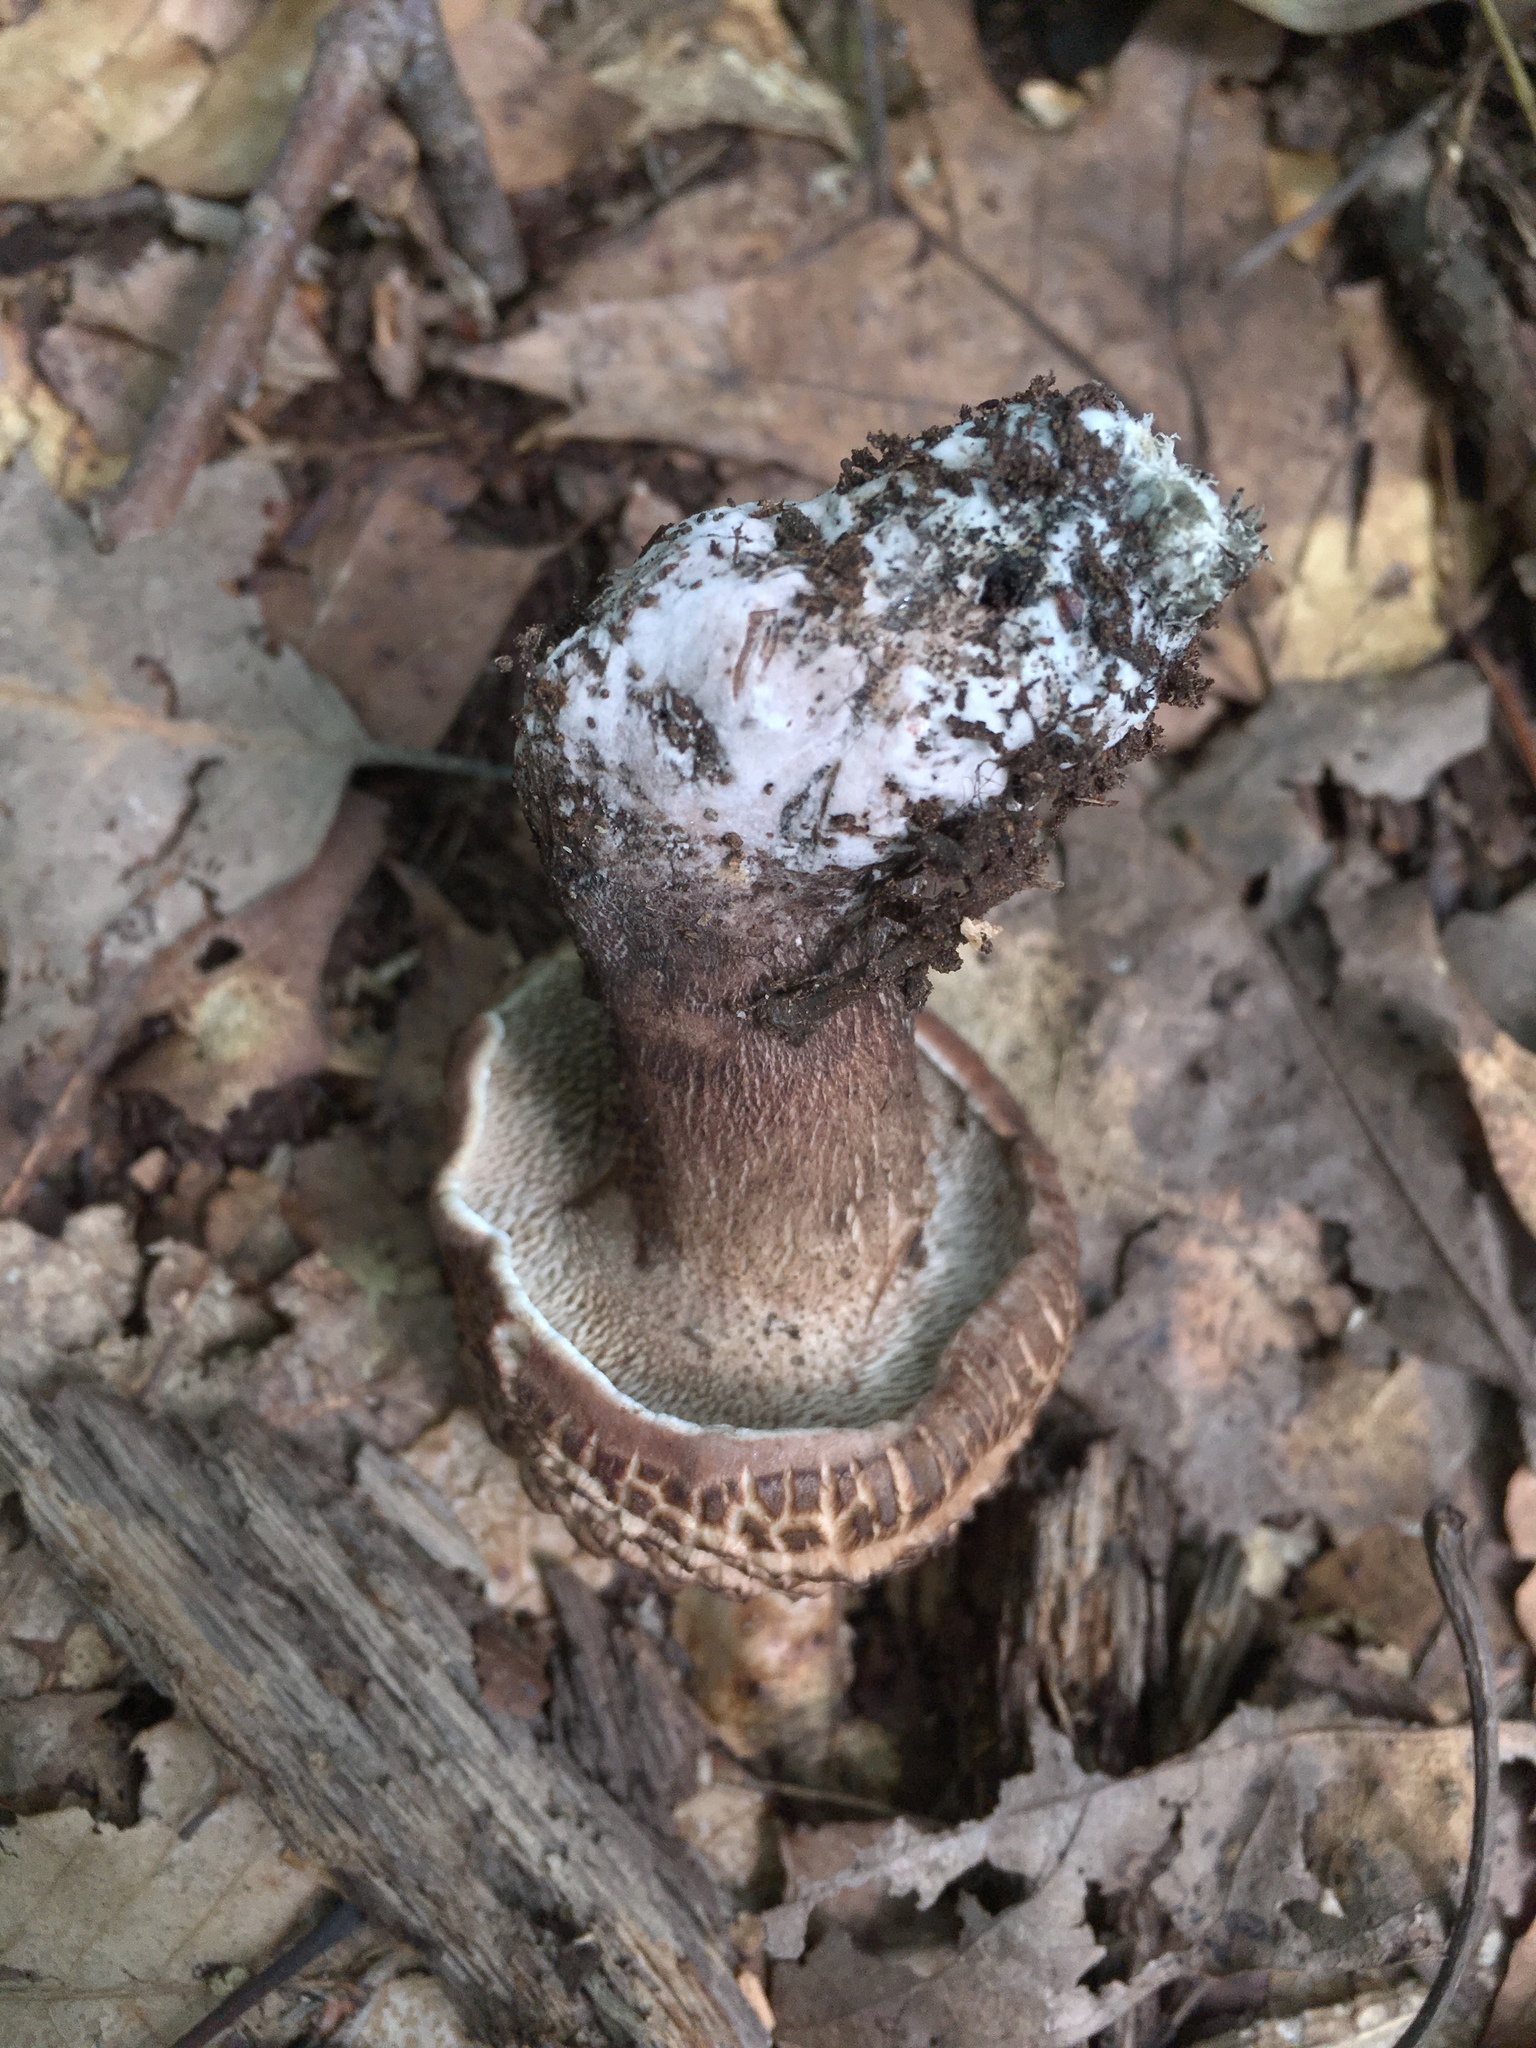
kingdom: Fungi
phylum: Basidiomycota
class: Agaricomycetes
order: Thelephorales
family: Bankeraceae
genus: Hydnellum
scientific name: Hydnellum scabrosum
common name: Bitter tooth
